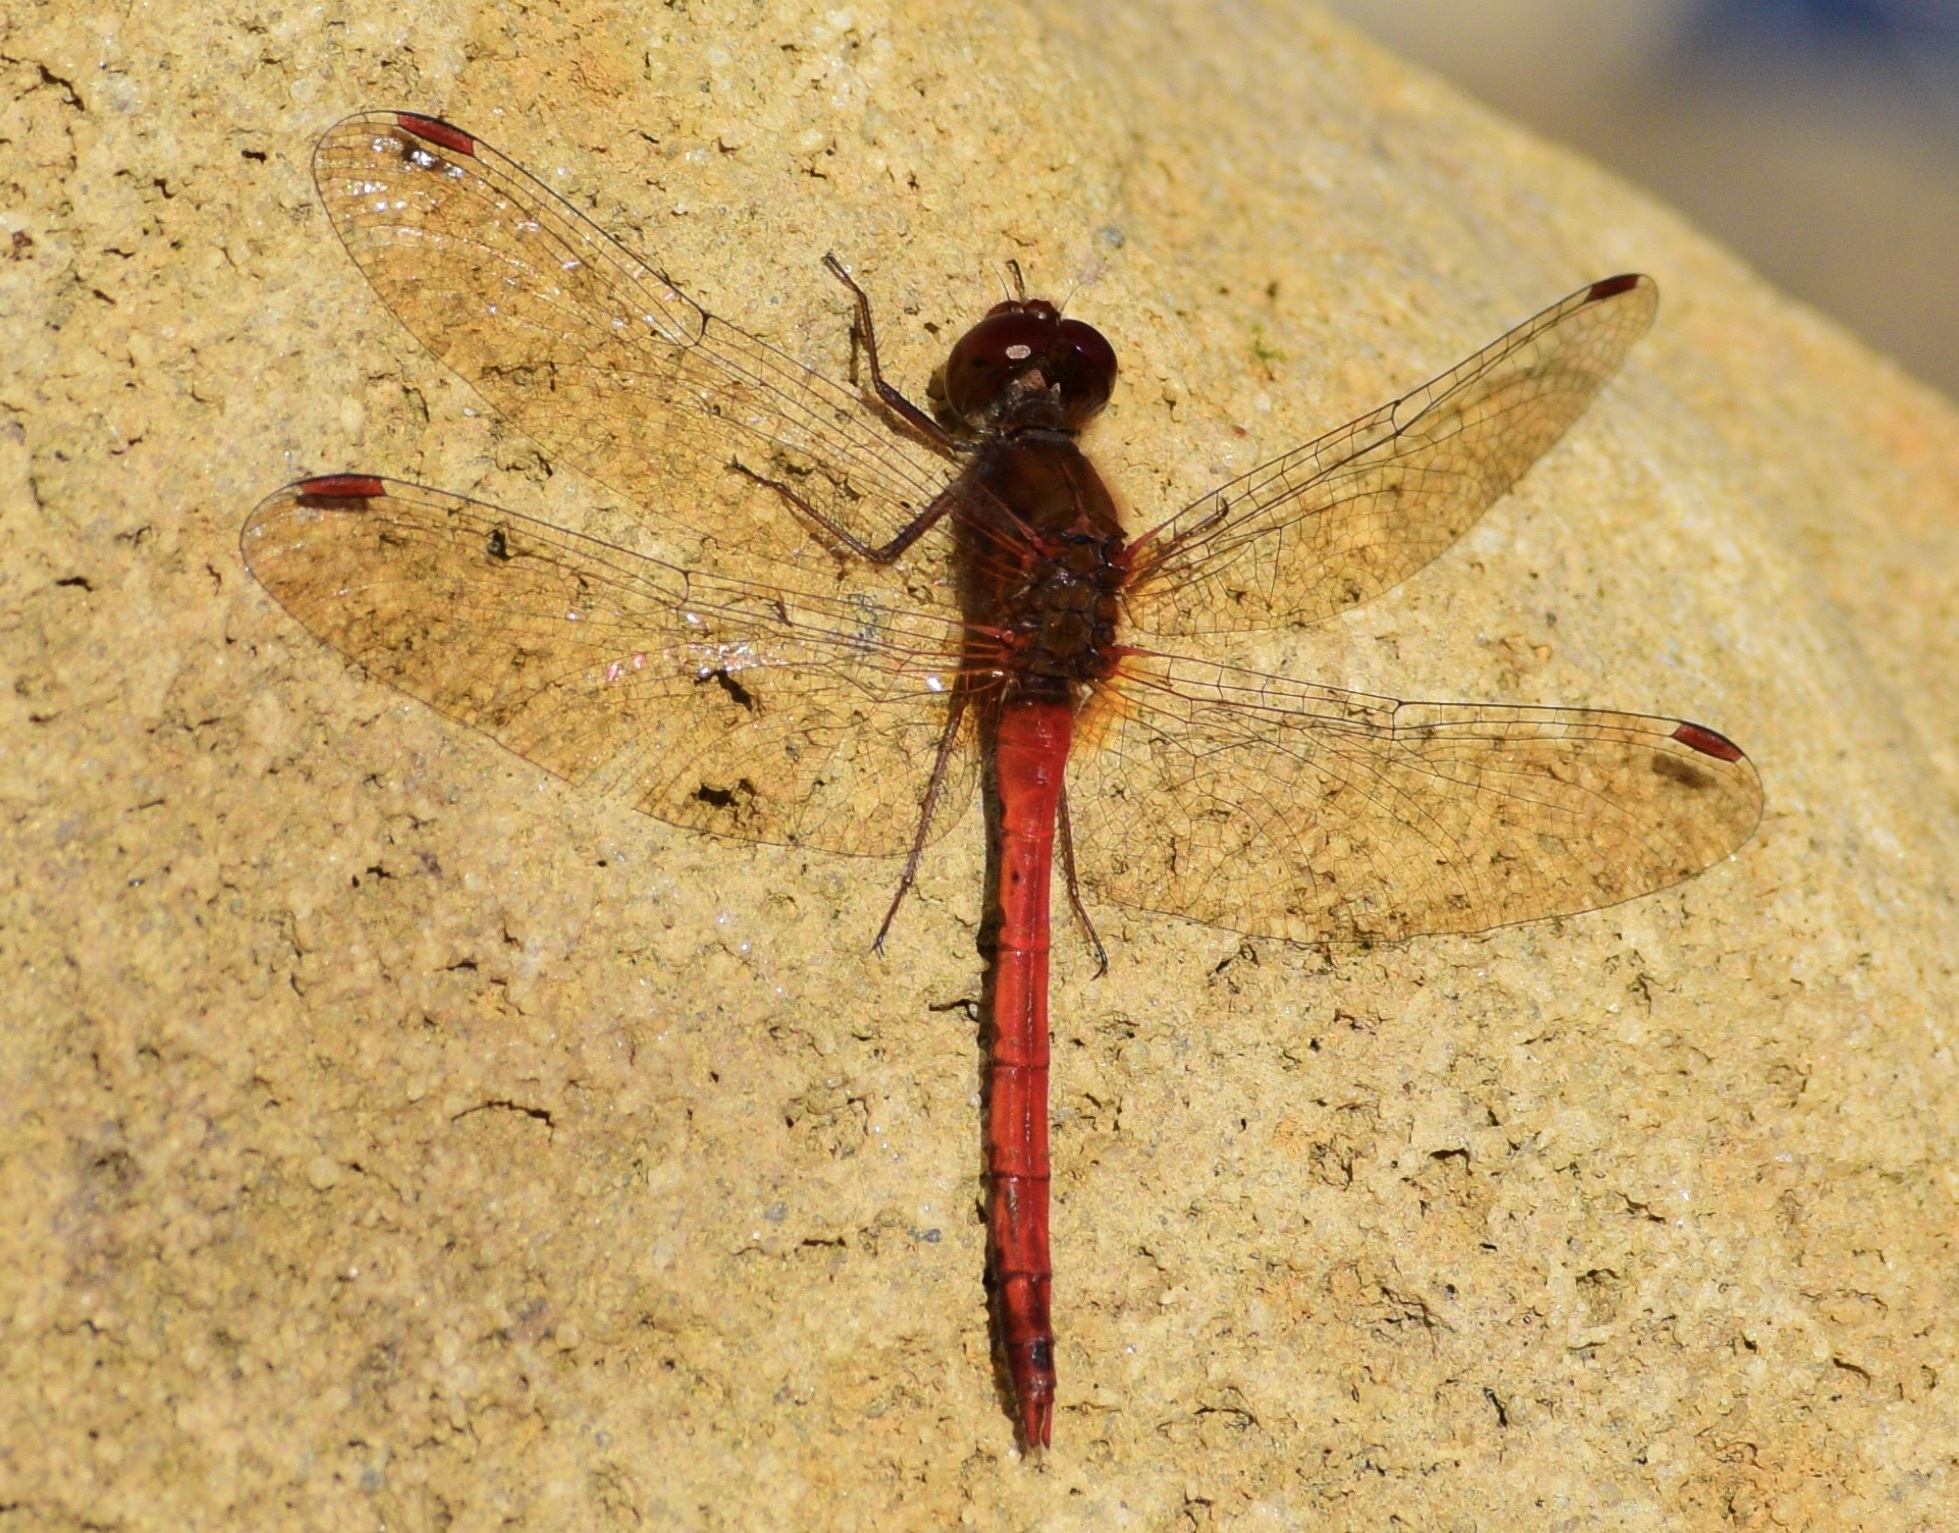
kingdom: Animalia
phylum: Arthropoda
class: Insecta
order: Odonata
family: Libellulidae
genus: Sympetrum
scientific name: Sympetrum vicinum
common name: Autumn meadowhawk
